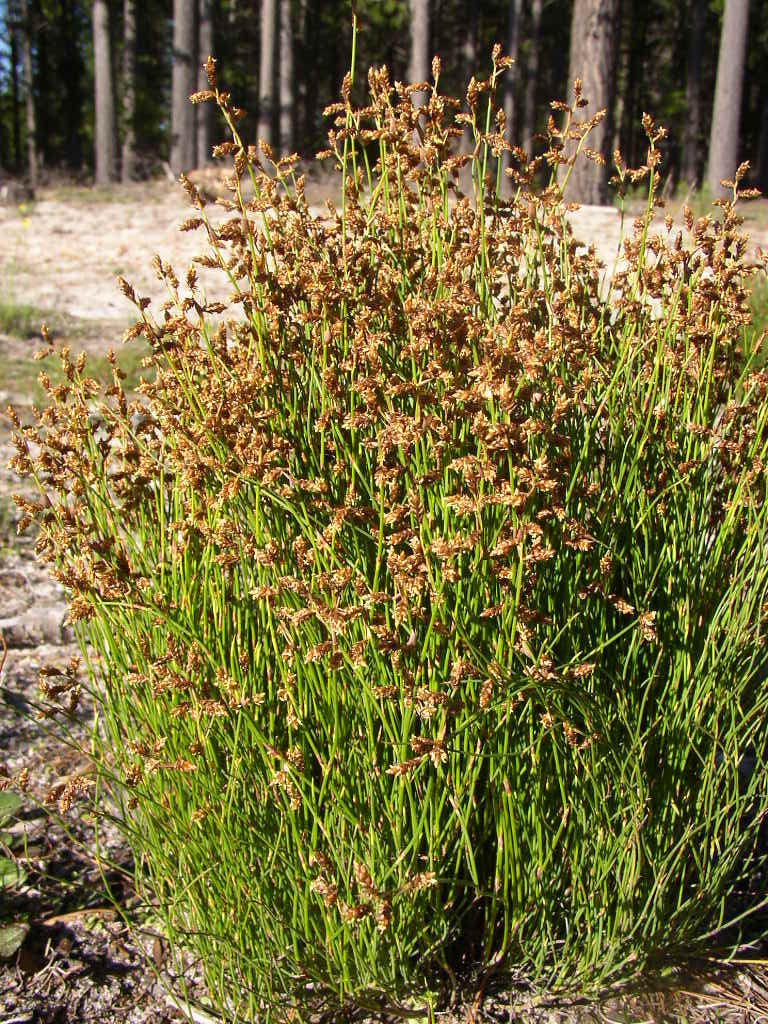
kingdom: Plantae
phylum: Tracheophyta
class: Liliopsida
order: Poales
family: Restionaceae
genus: Mastersiella
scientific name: Mastersiella digitata
